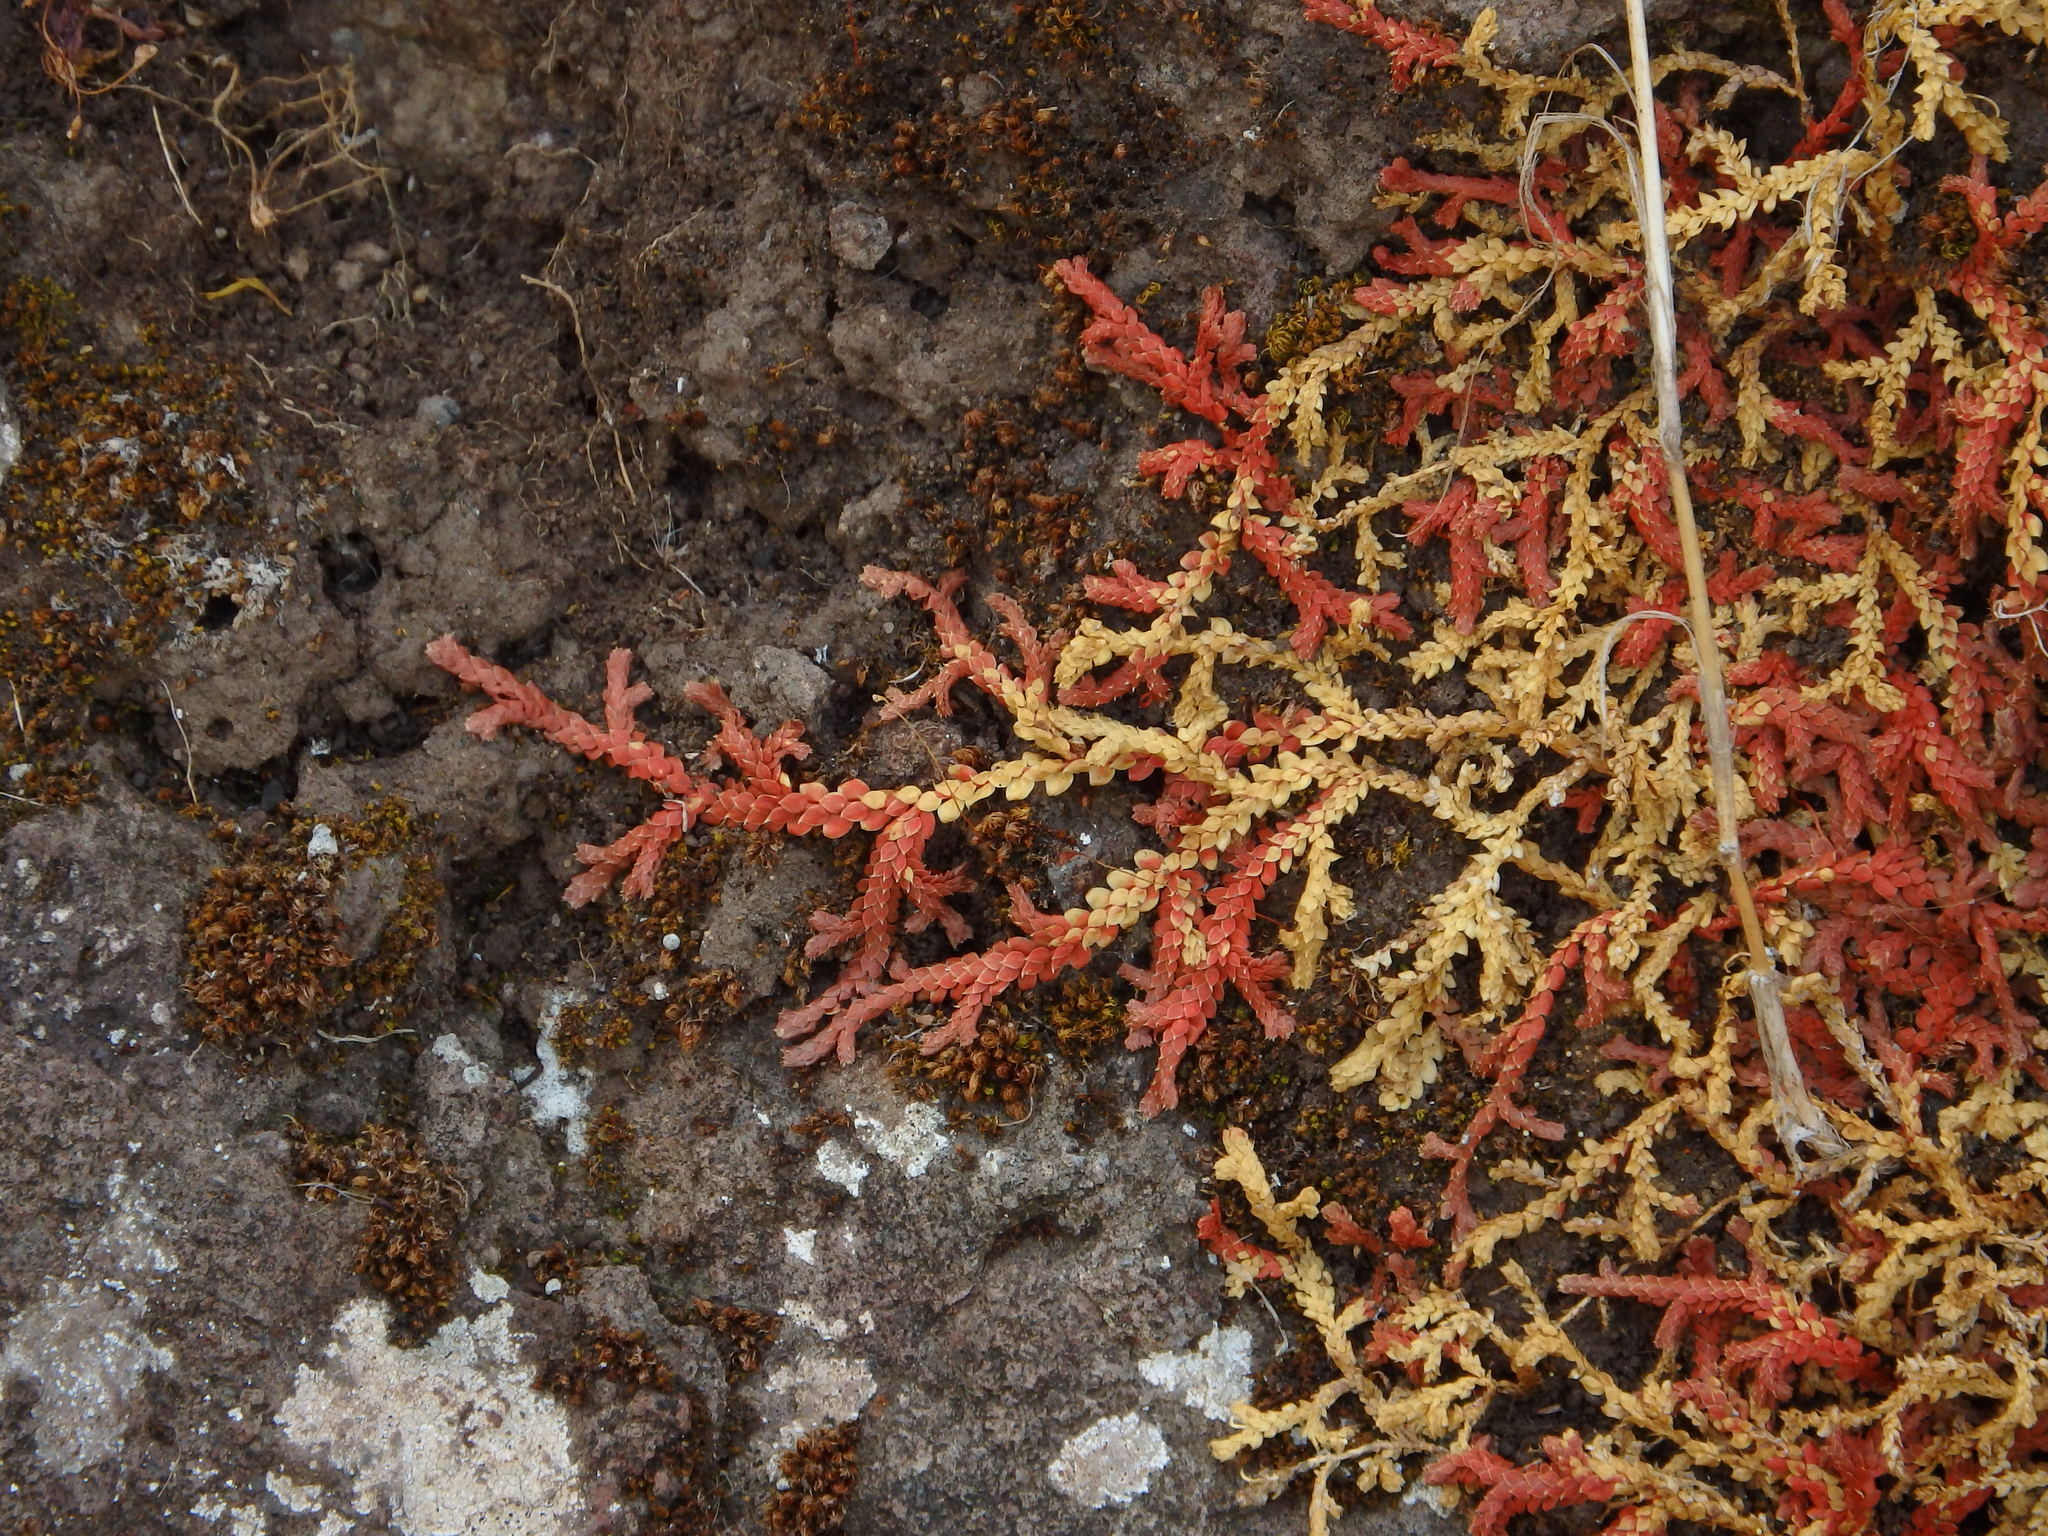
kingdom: Plantae
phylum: Tracheophyta
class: Lycopodiopsida
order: Selaginellales
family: Selaginellaceae
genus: Selaginella
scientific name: Selaginella denticulata
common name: Toothed-leaved clubmoss
